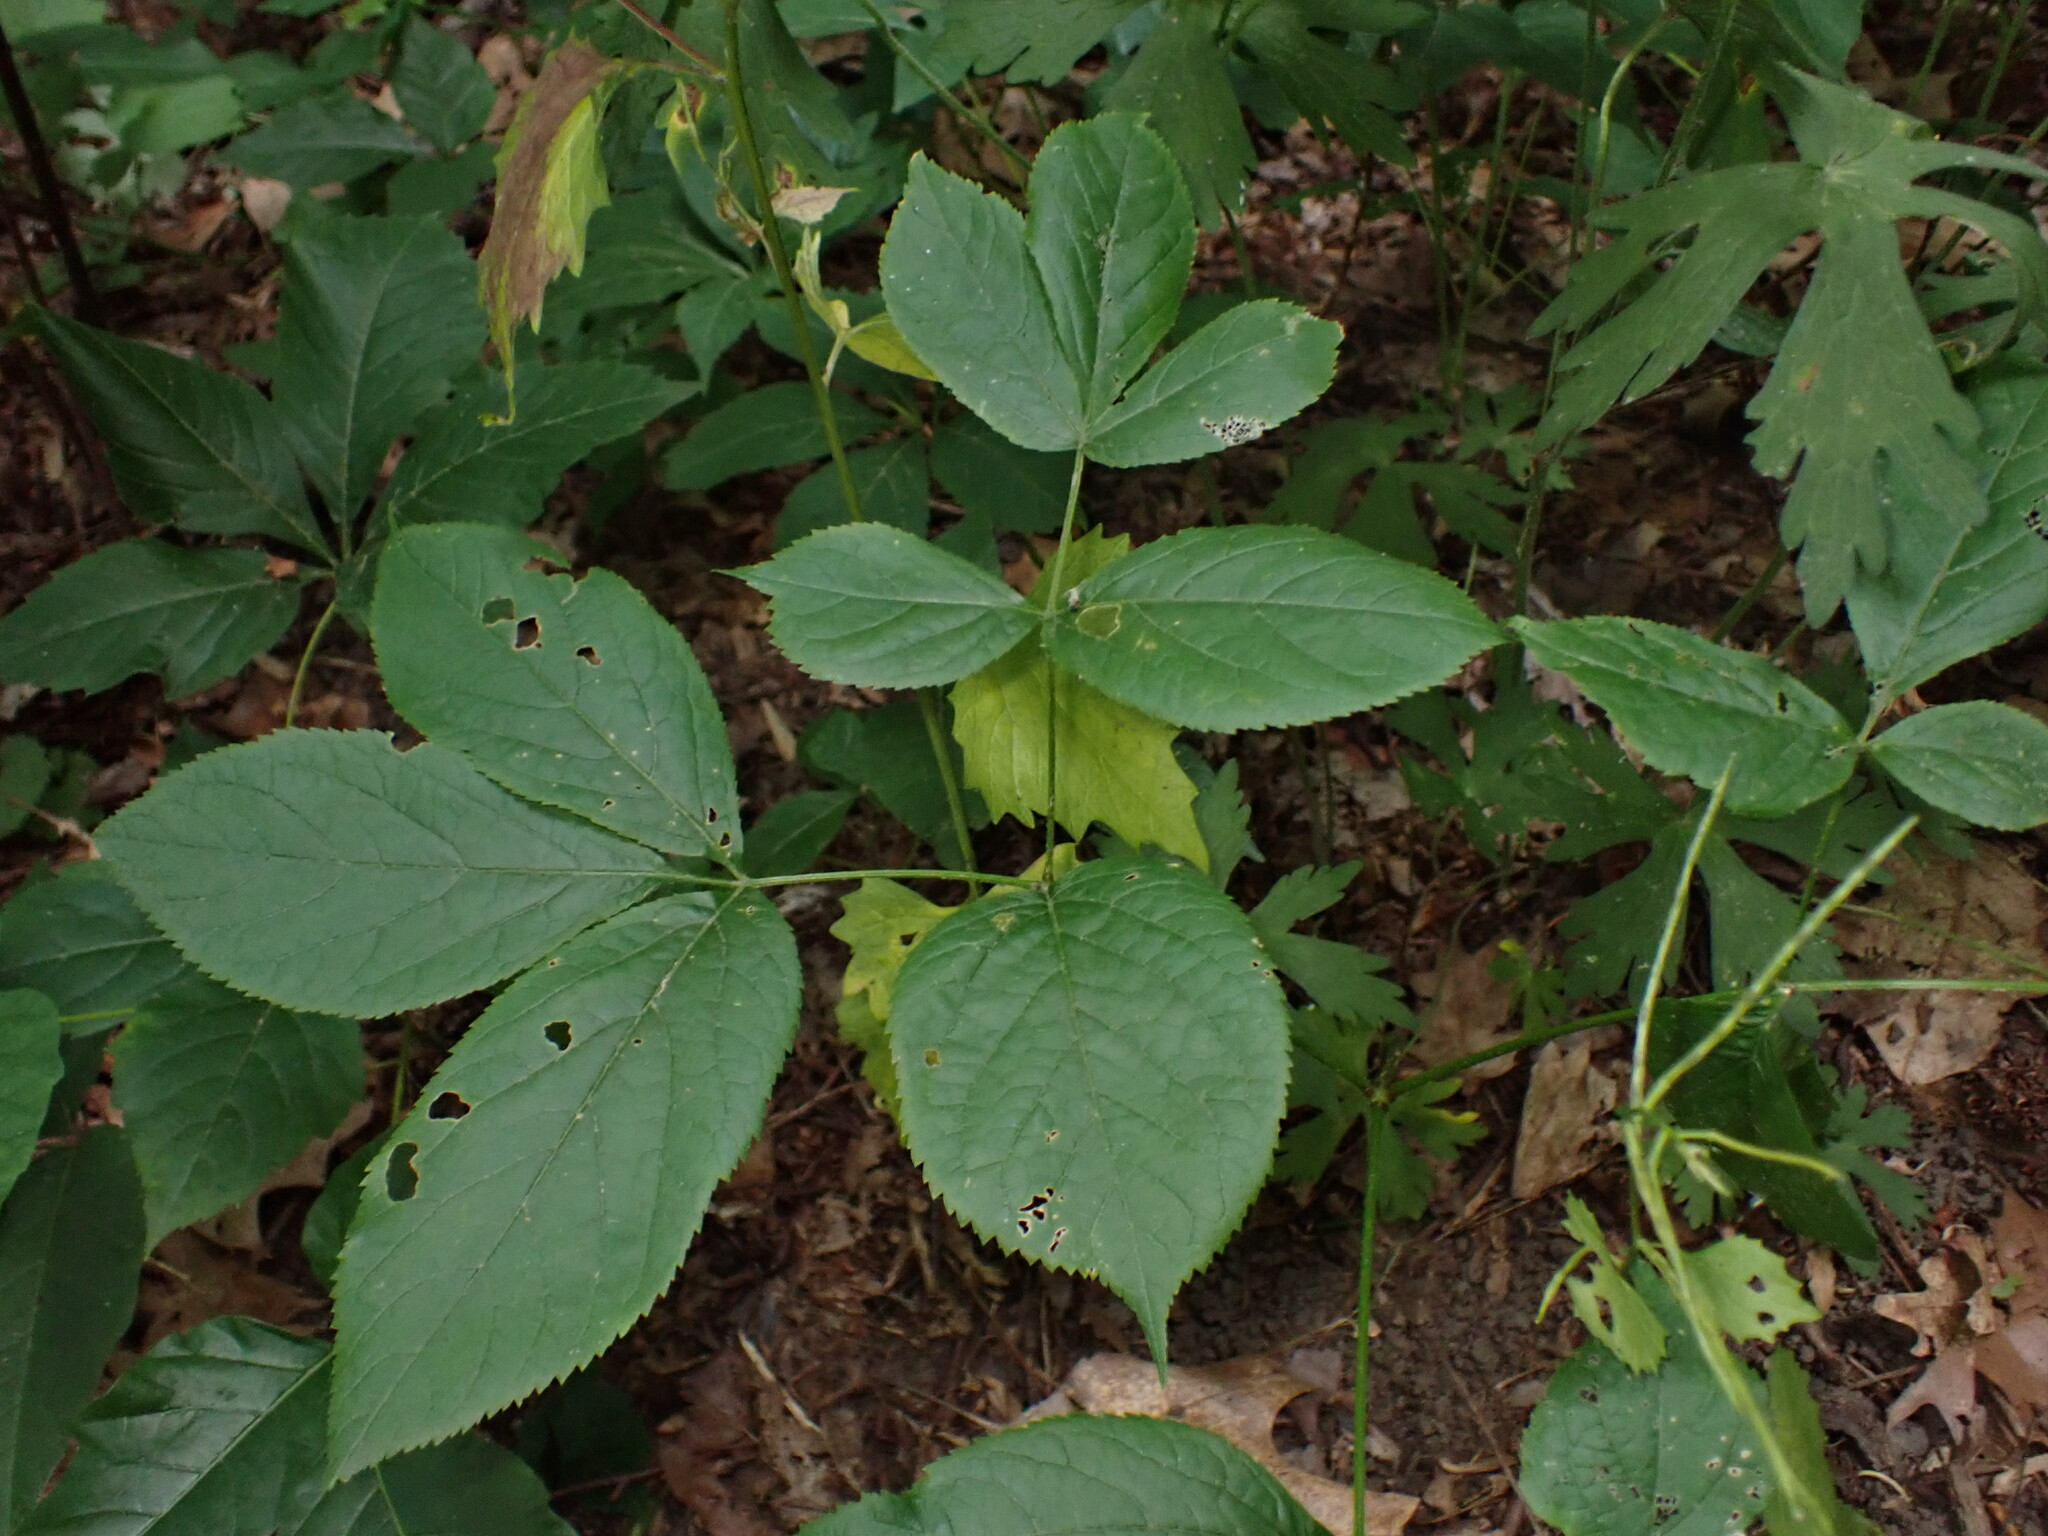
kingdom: Plantae
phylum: Tracheophyta
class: Magnoliopsida
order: Apiales
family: Araliaceae
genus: Aralia
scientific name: Aralia nudicaulis
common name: Wild sarsaparilla
